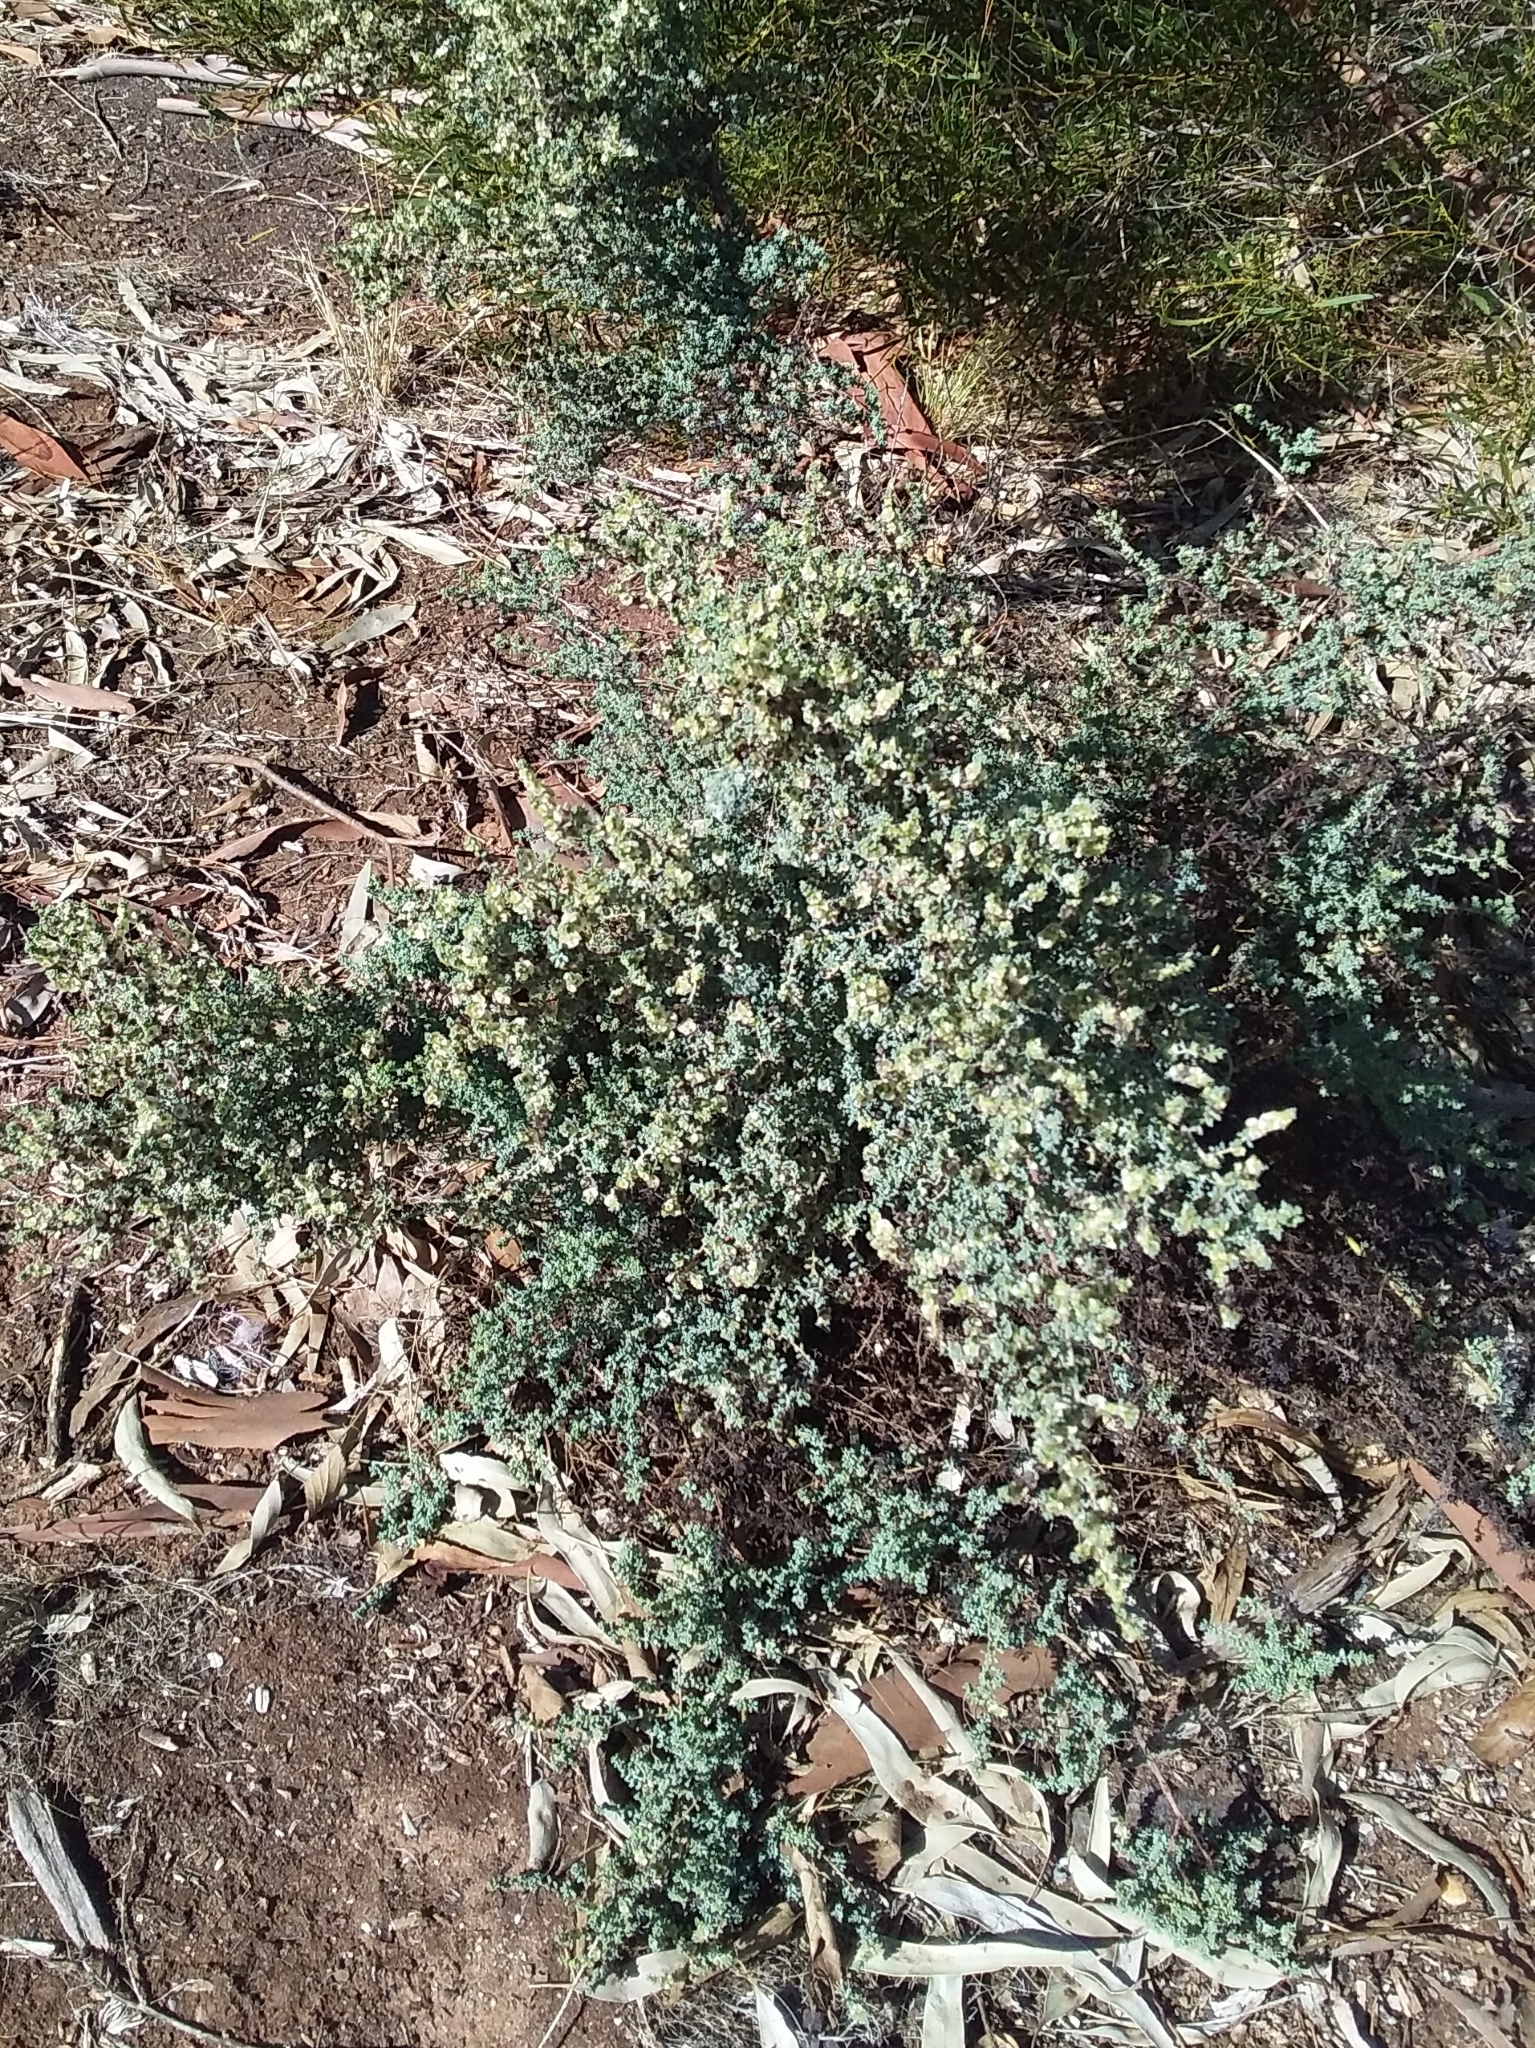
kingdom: Plantae
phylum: Tracheophyta
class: Magnoliopsida
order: Caryophyllales
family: Amaranthaceae
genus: Maireana
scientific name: Maireana brevifolia
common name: Eastern cottonbush
